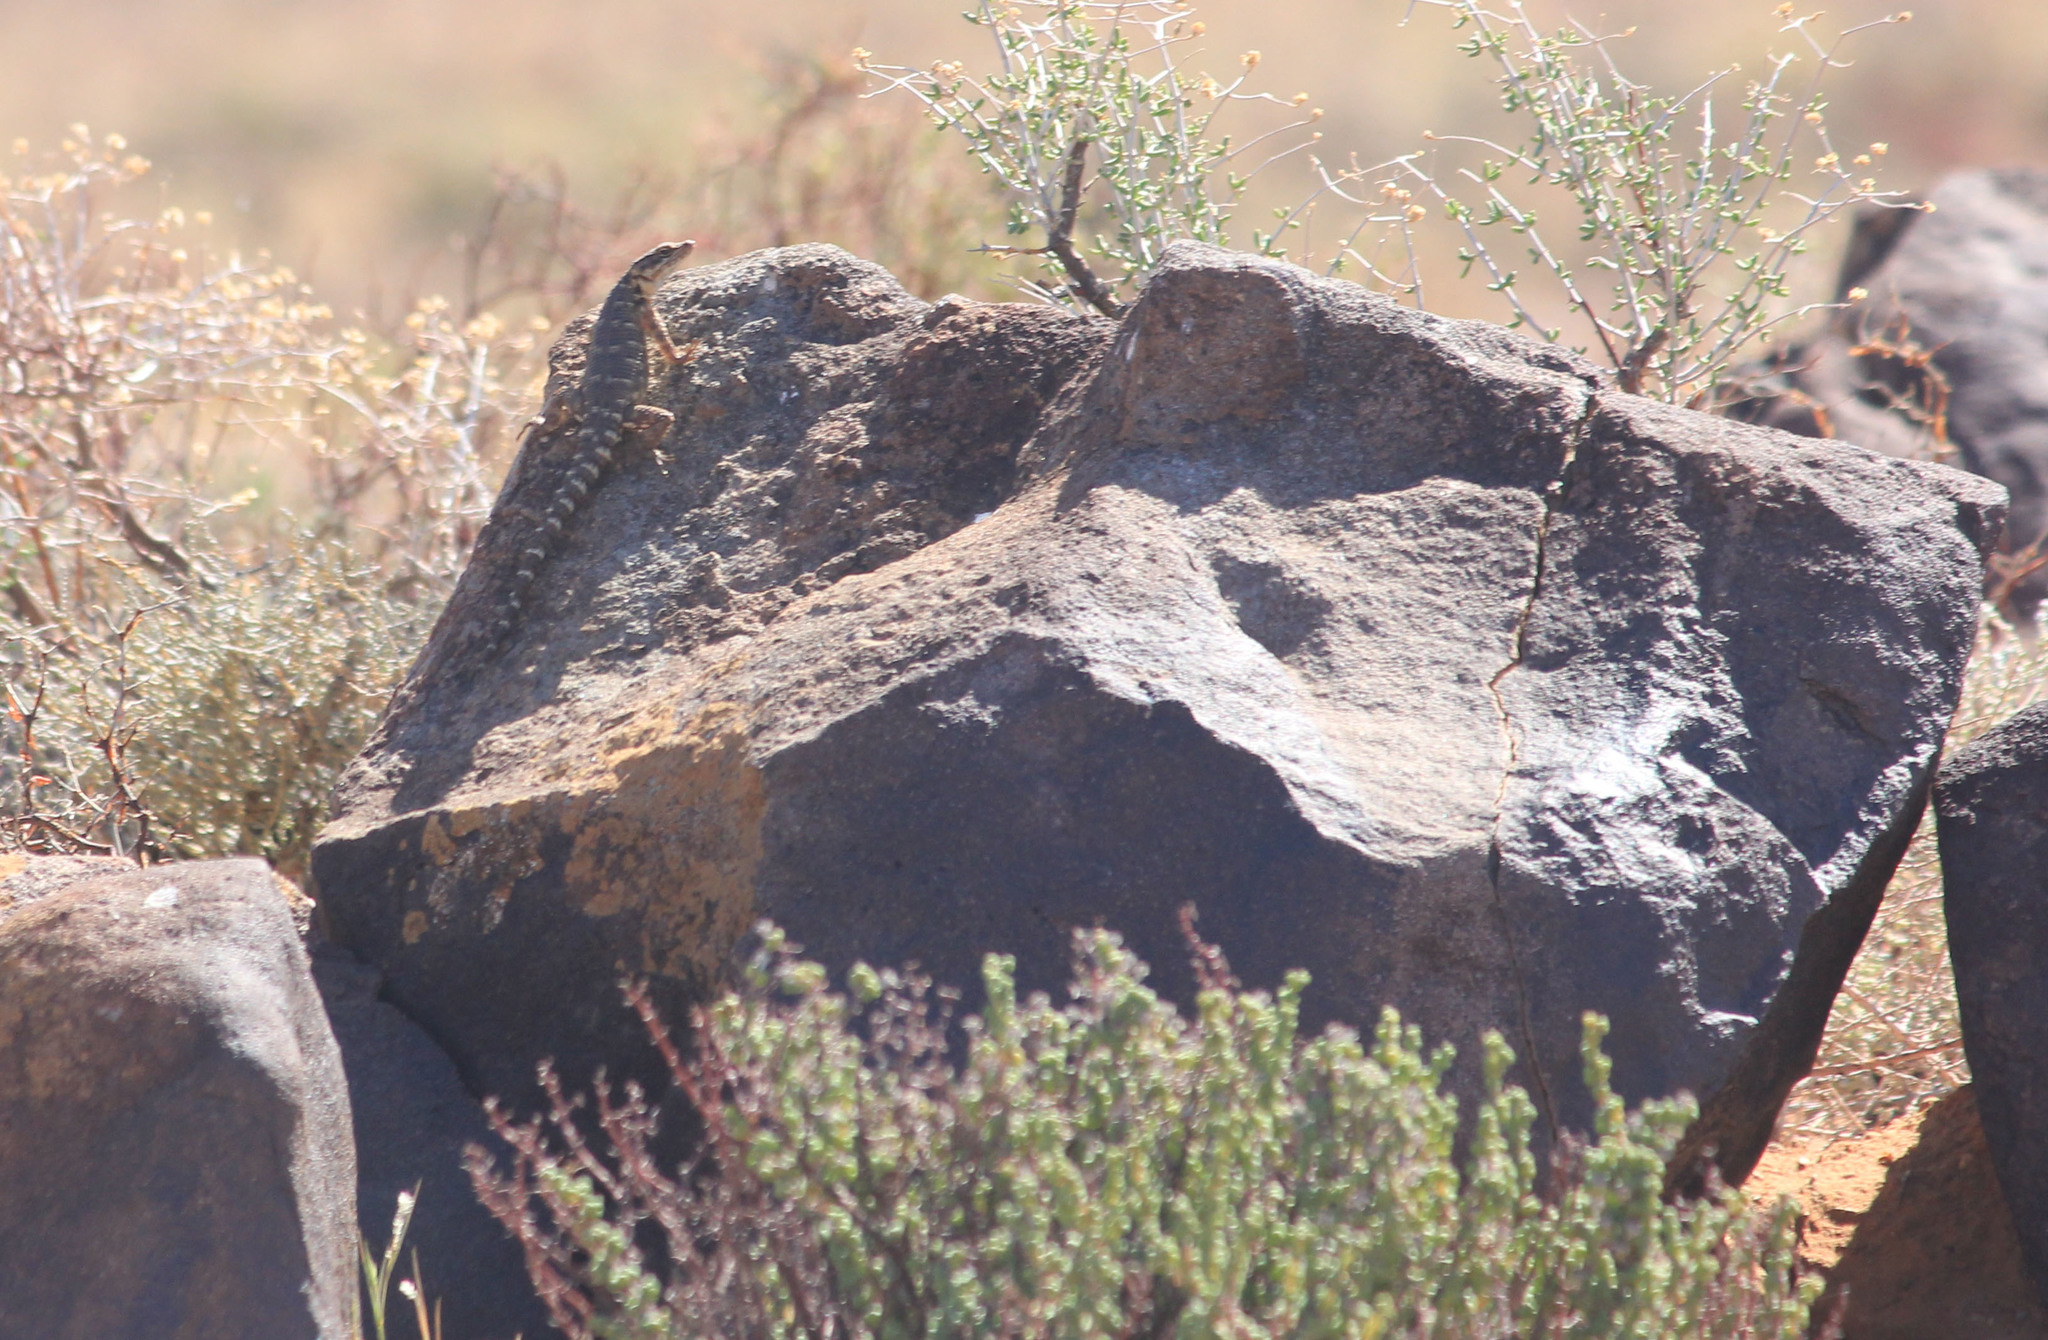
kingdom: Animalia
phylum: Chordata
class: Squamata
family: Cordylidae
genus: Karusasaurus
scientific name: Karusasaurus polyzonus
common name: Karoo girdled lizard
